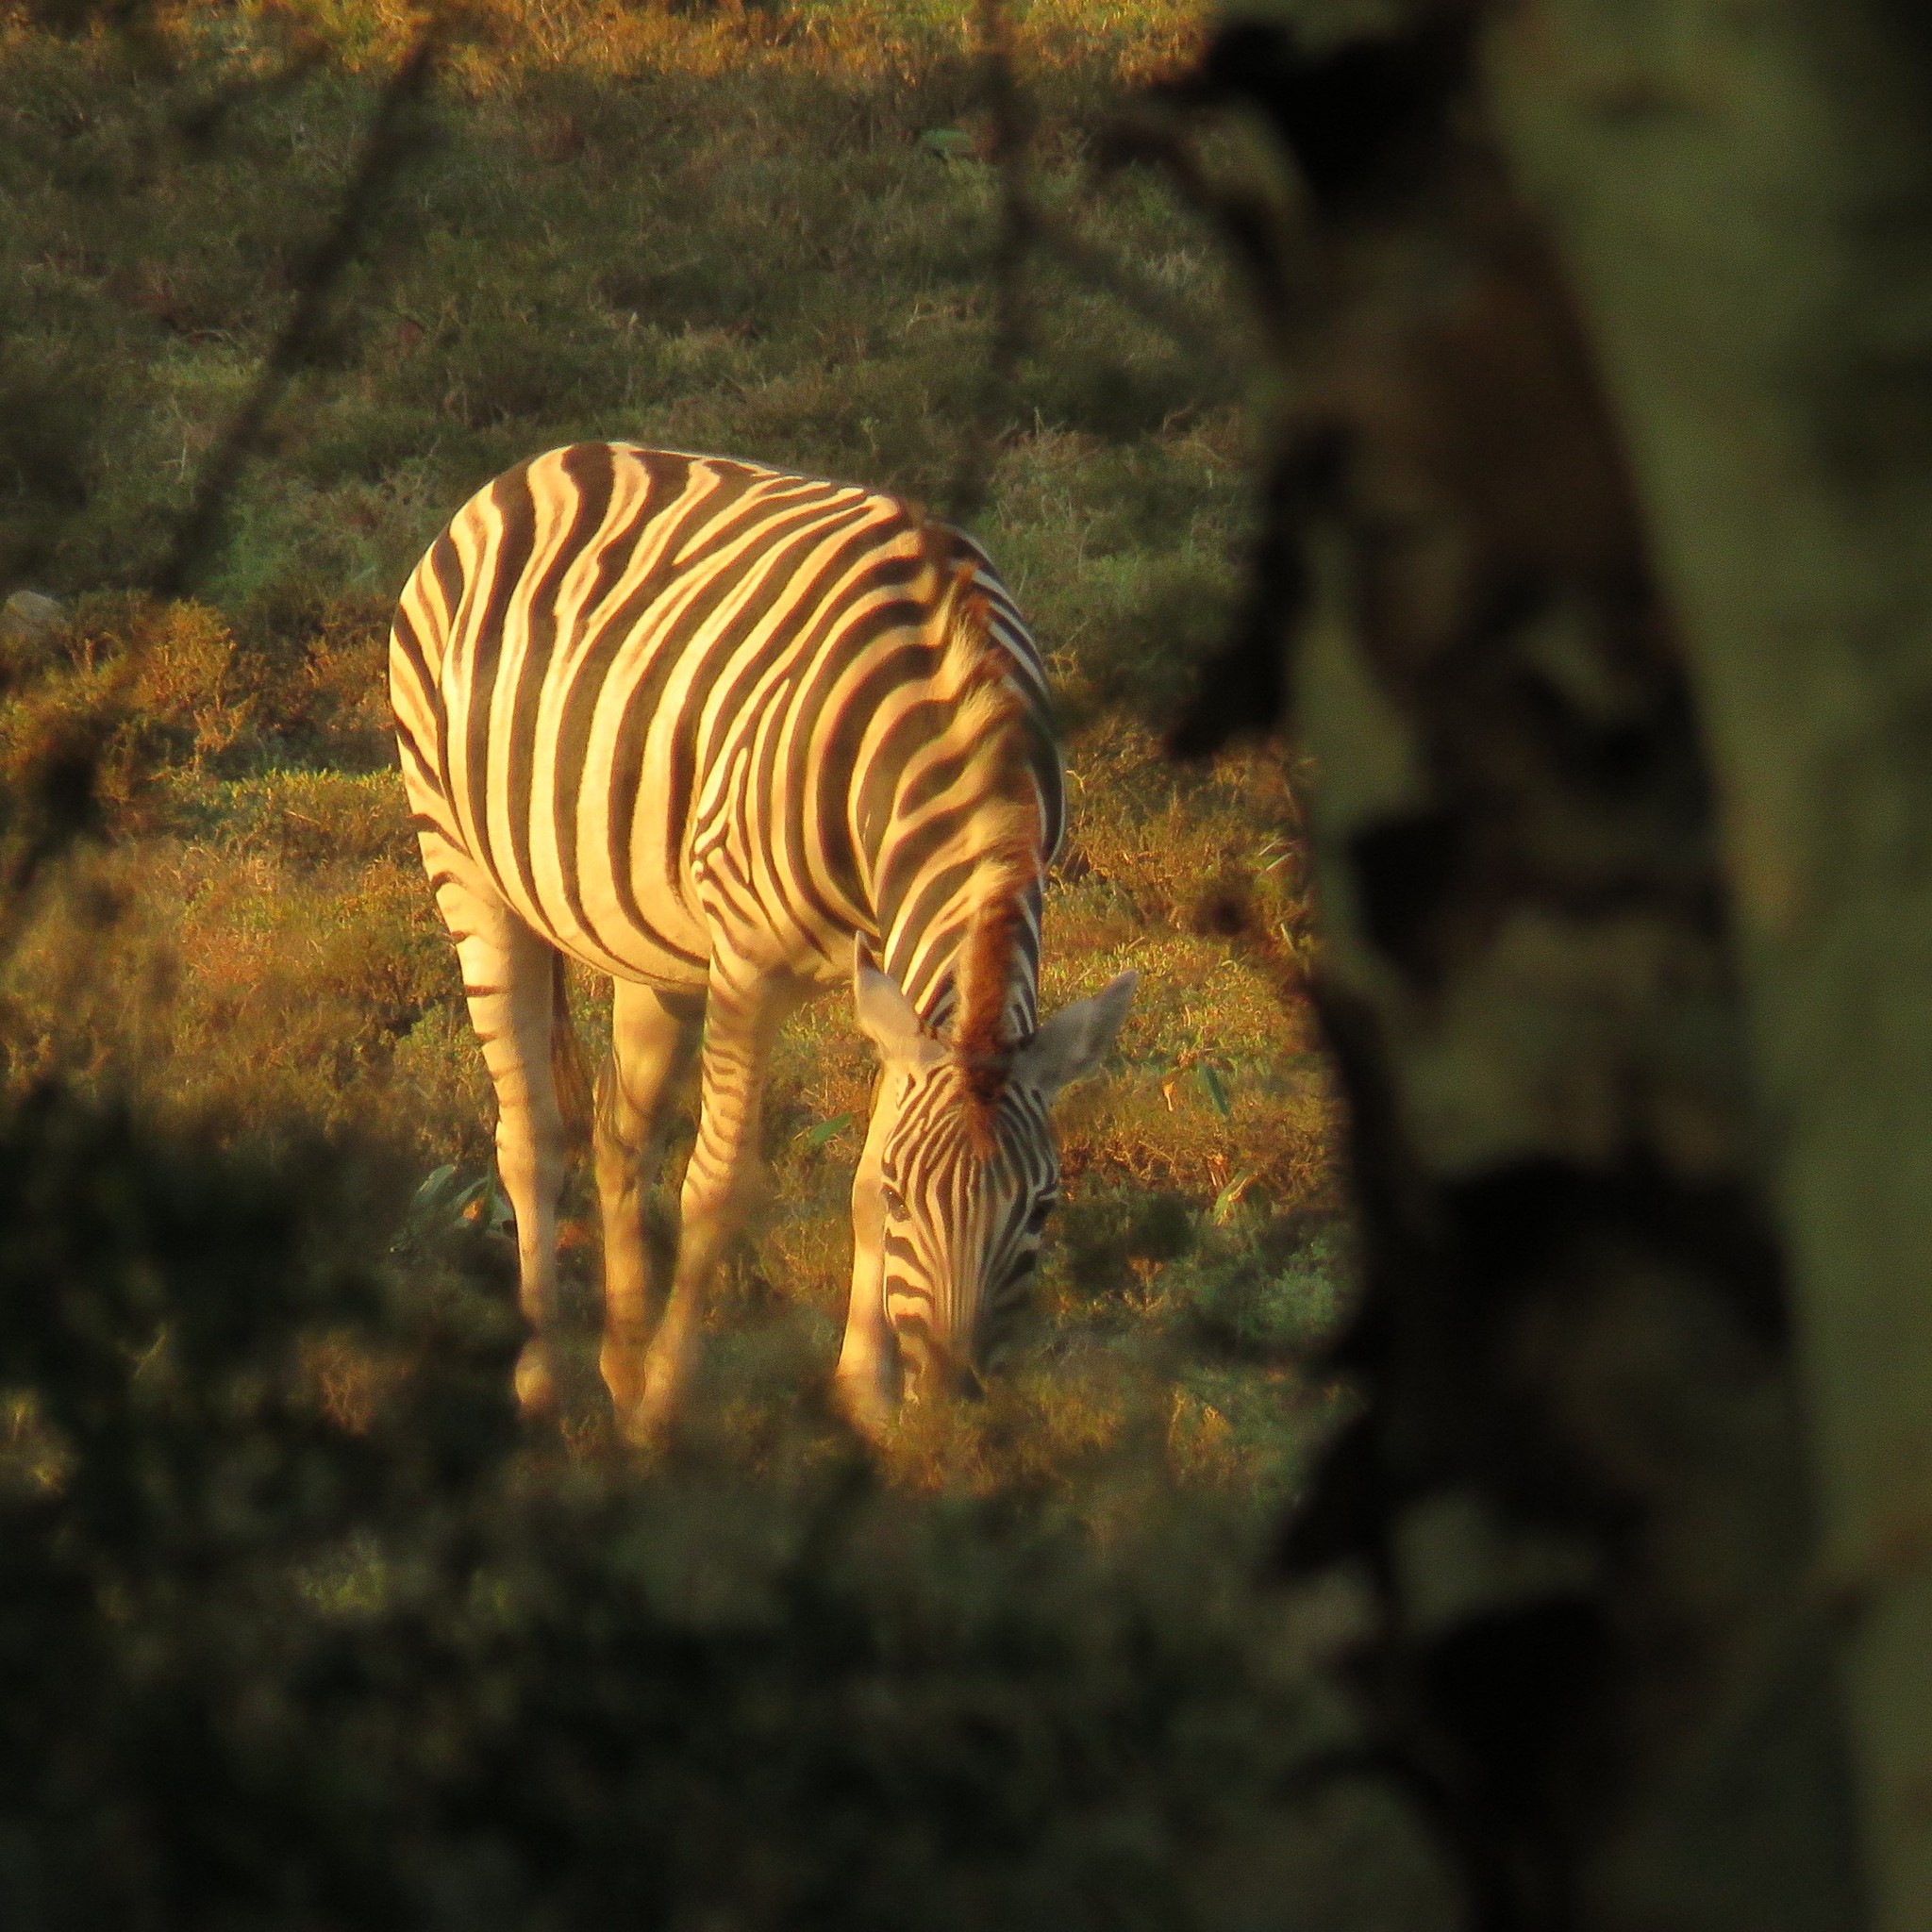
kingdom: Animalia
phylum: Chordata
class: Mammalia
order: Perissodactyla
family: Equidae
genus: Equus
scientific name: Equus quagga
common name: Plains zebra
